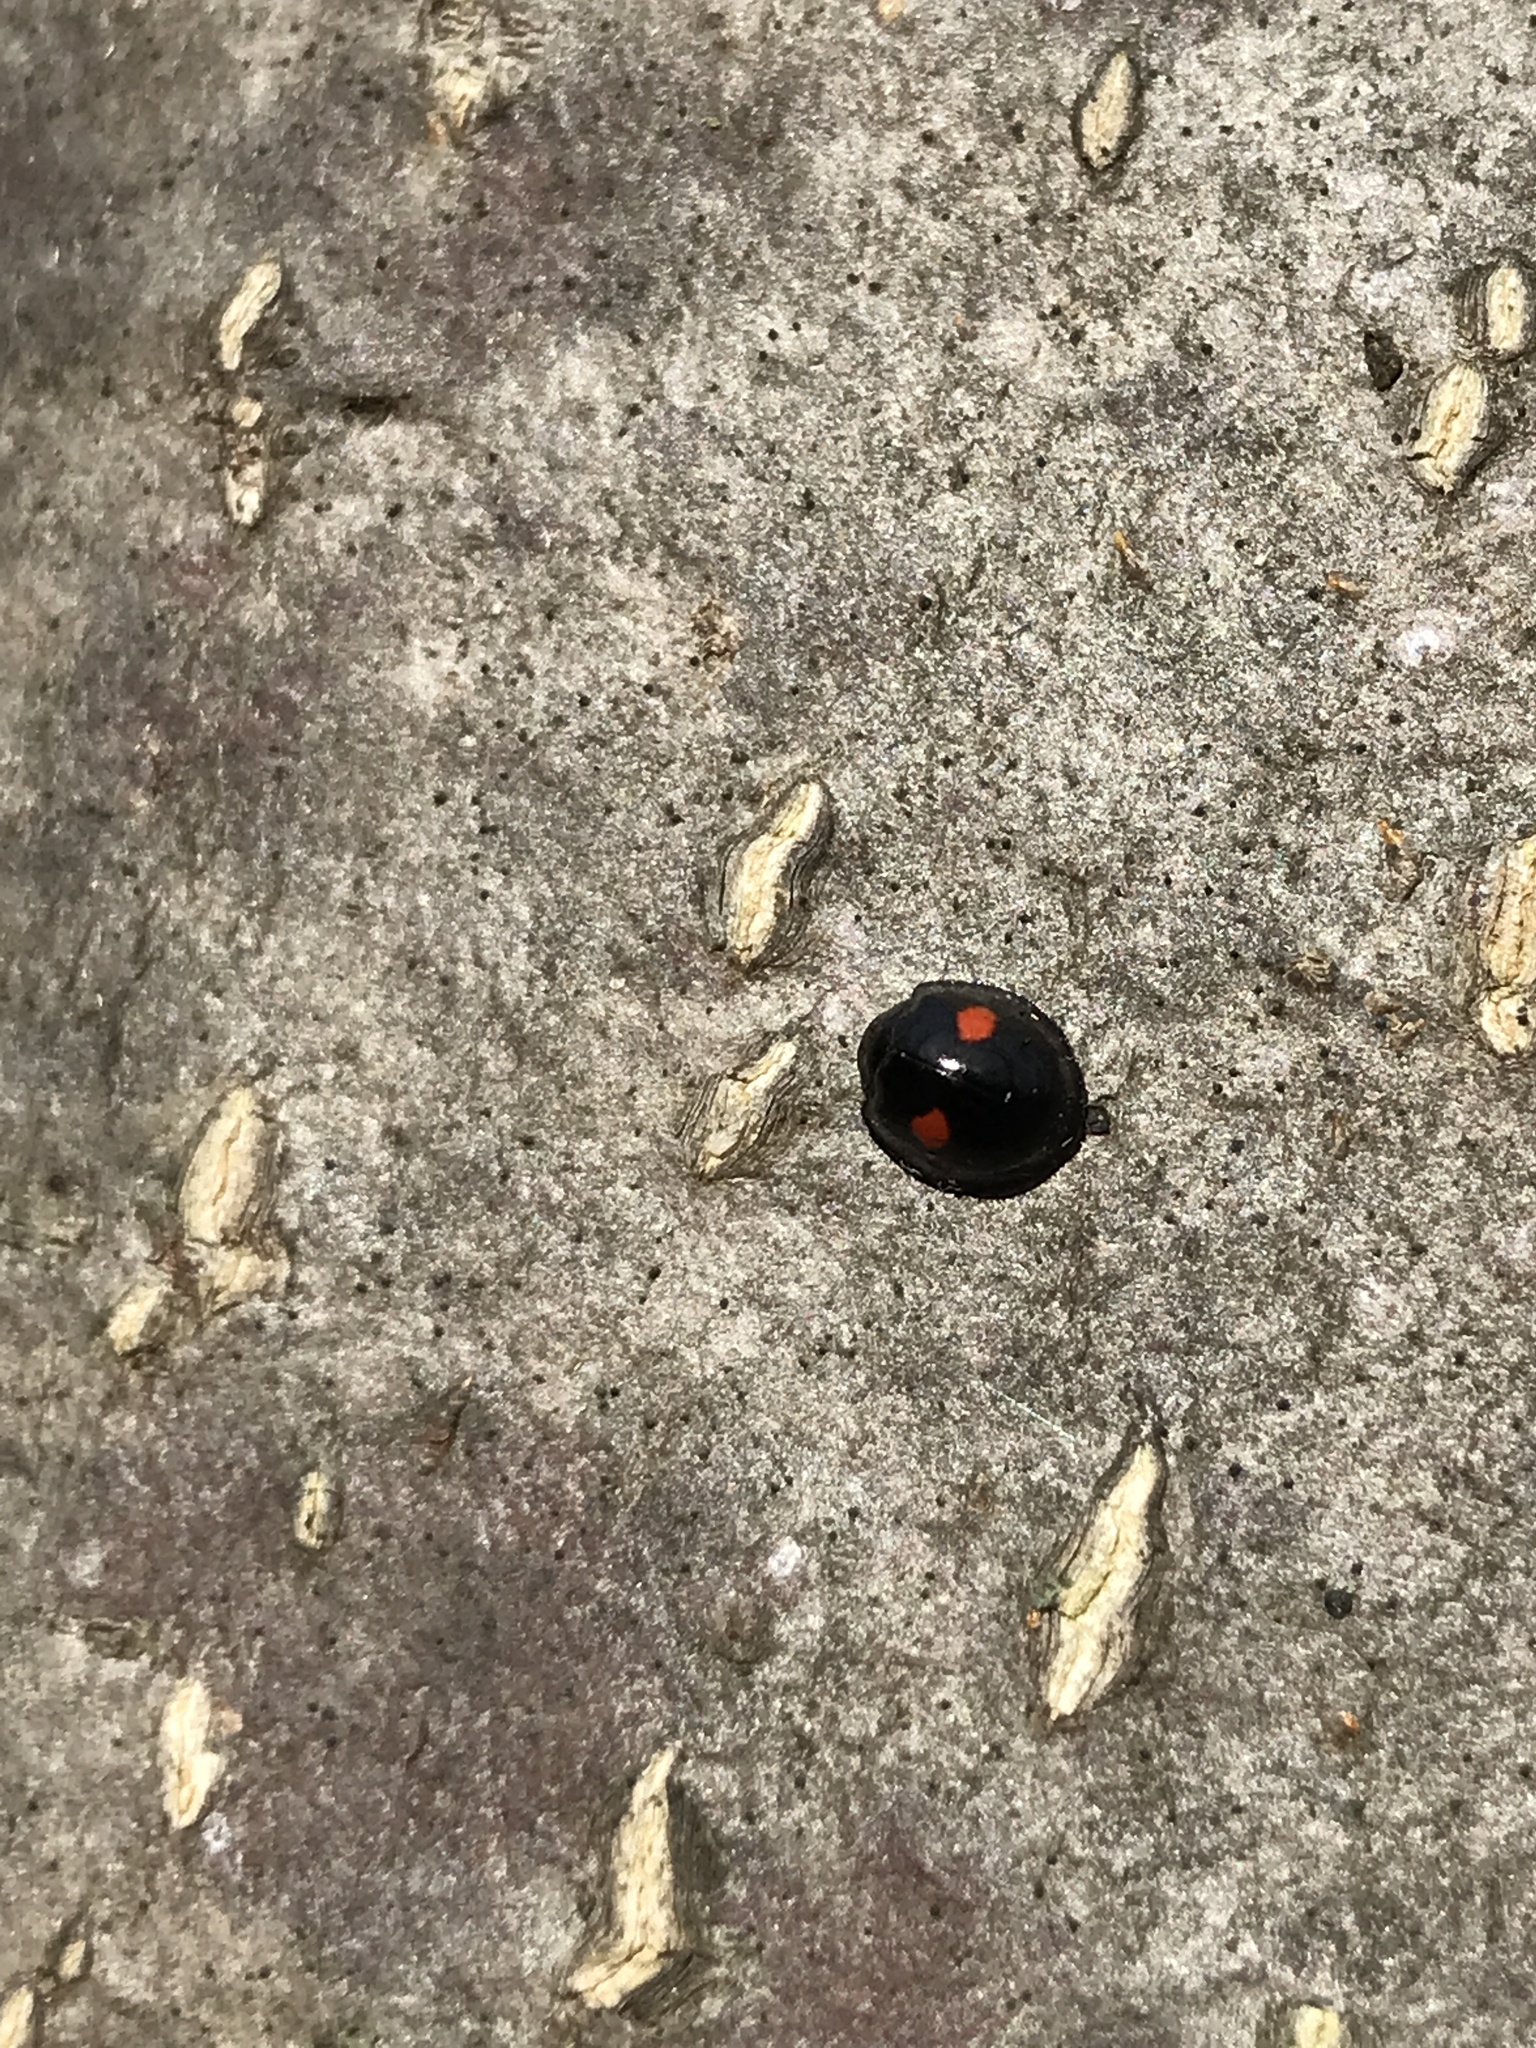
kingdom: Animalia
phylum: Arthropoda
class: Insecta
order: Coleoptera
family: Coccinellidae
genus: Chilocorus
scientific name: Chilocorus stigma
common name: Twicestabbed lady beetle
